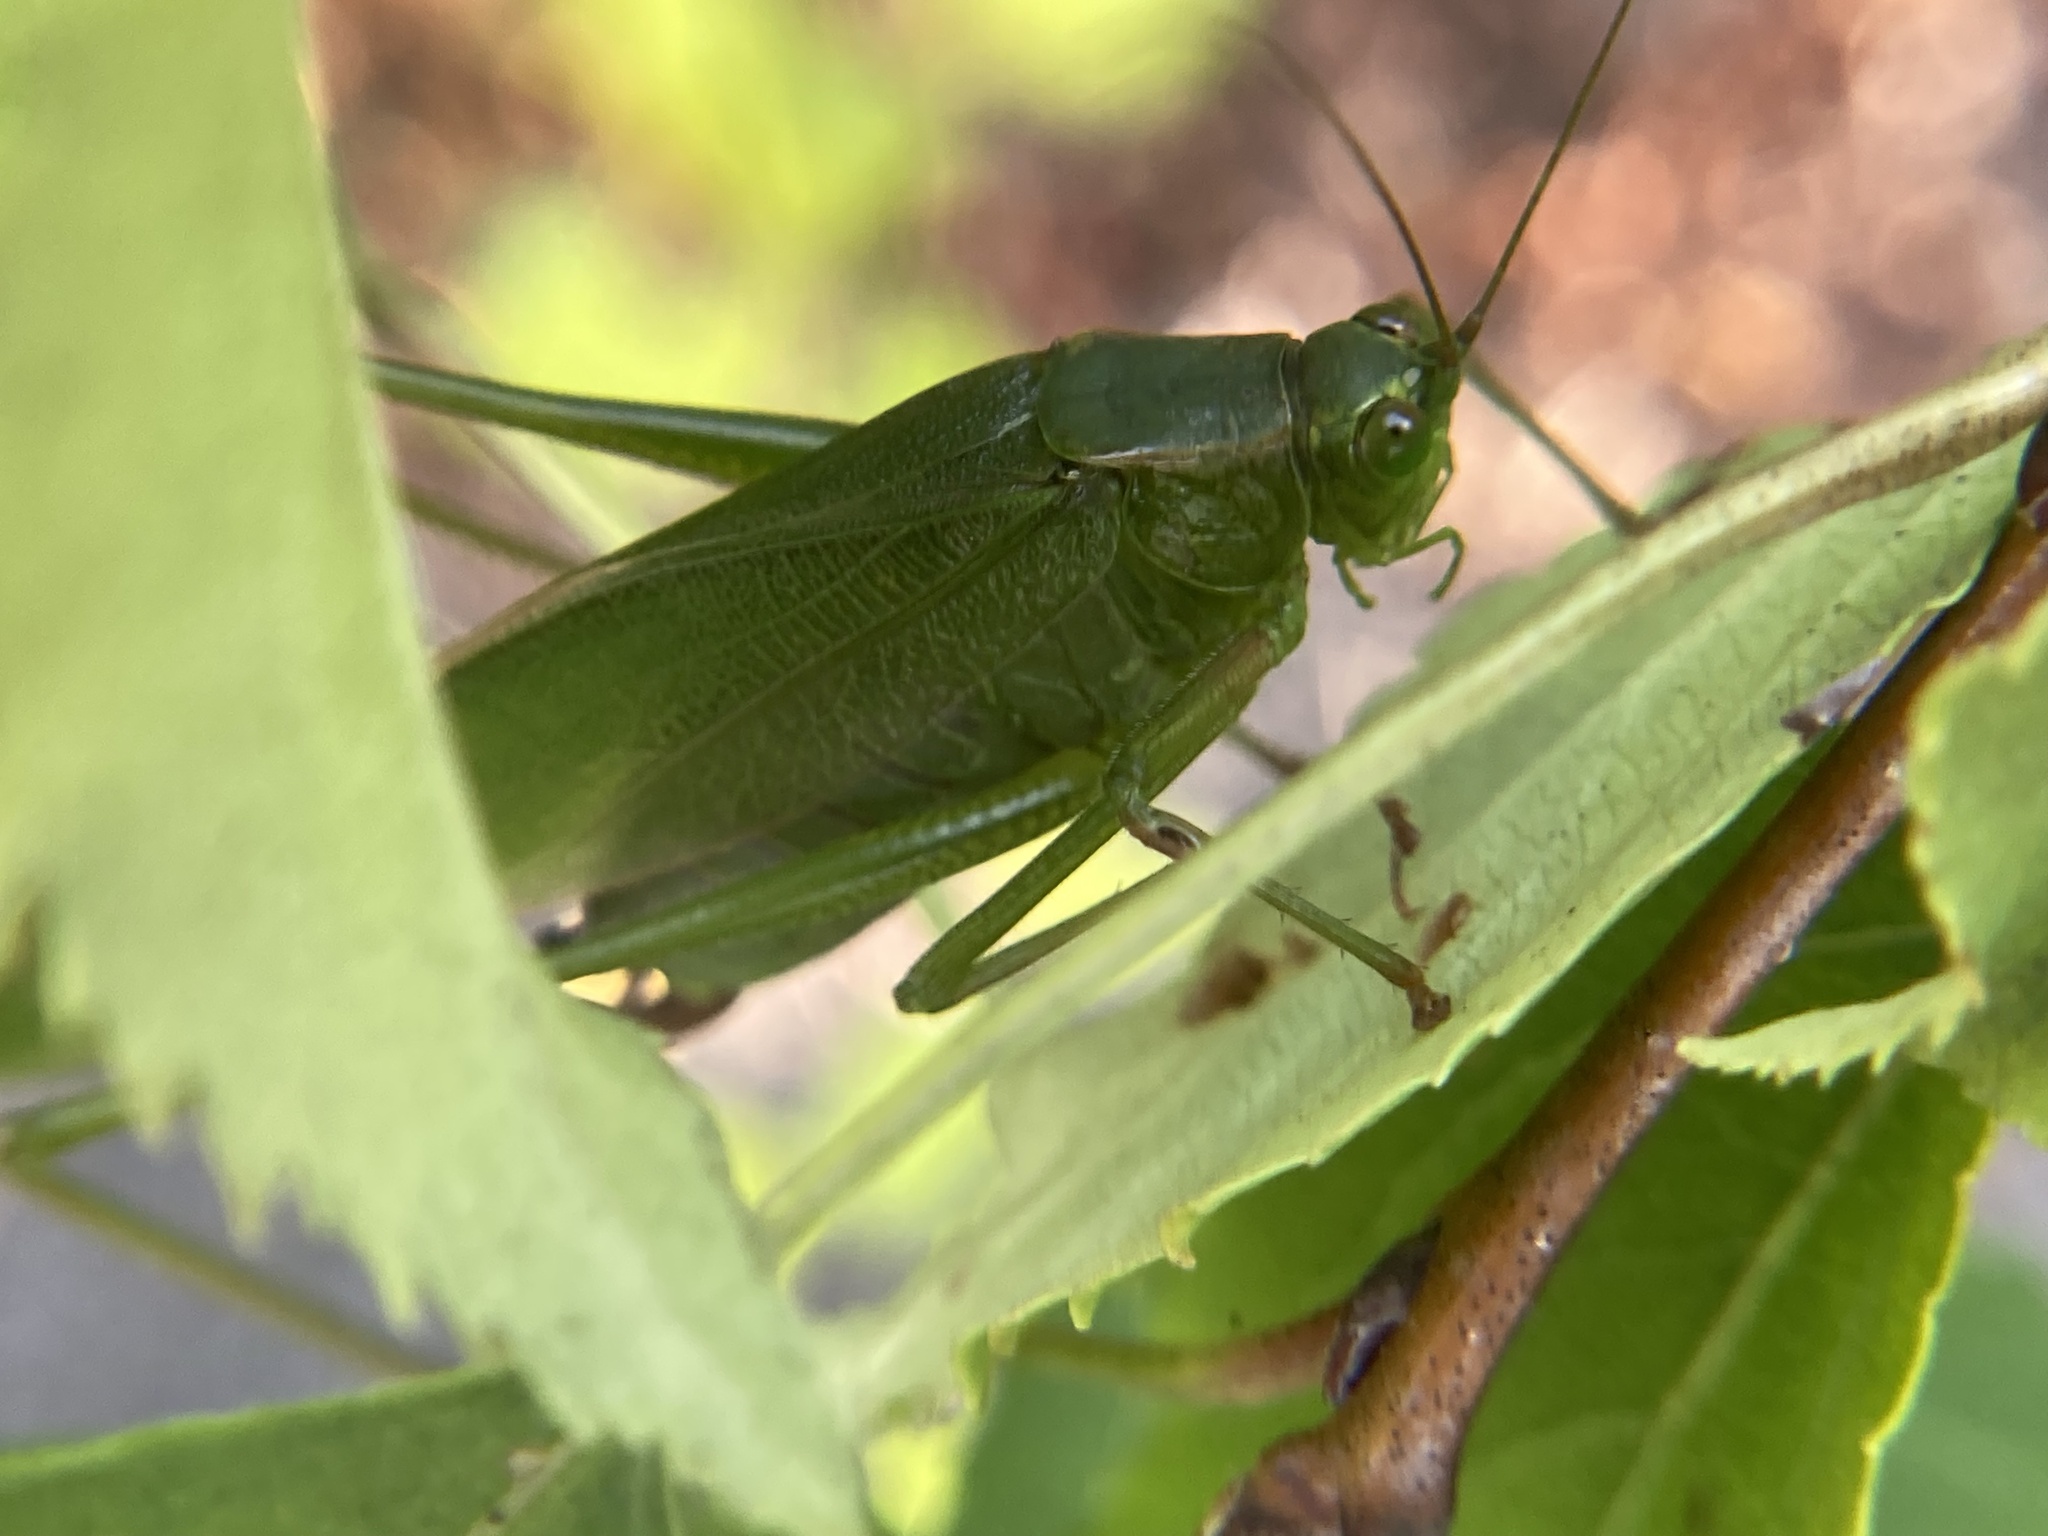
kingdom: Animalia
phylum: Arthropoda
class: Insecta
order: Orthoptera
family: Tettigoniidae
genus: Scudderia
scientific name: Scudderia furcata
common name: Fork-tailed bush katydid
